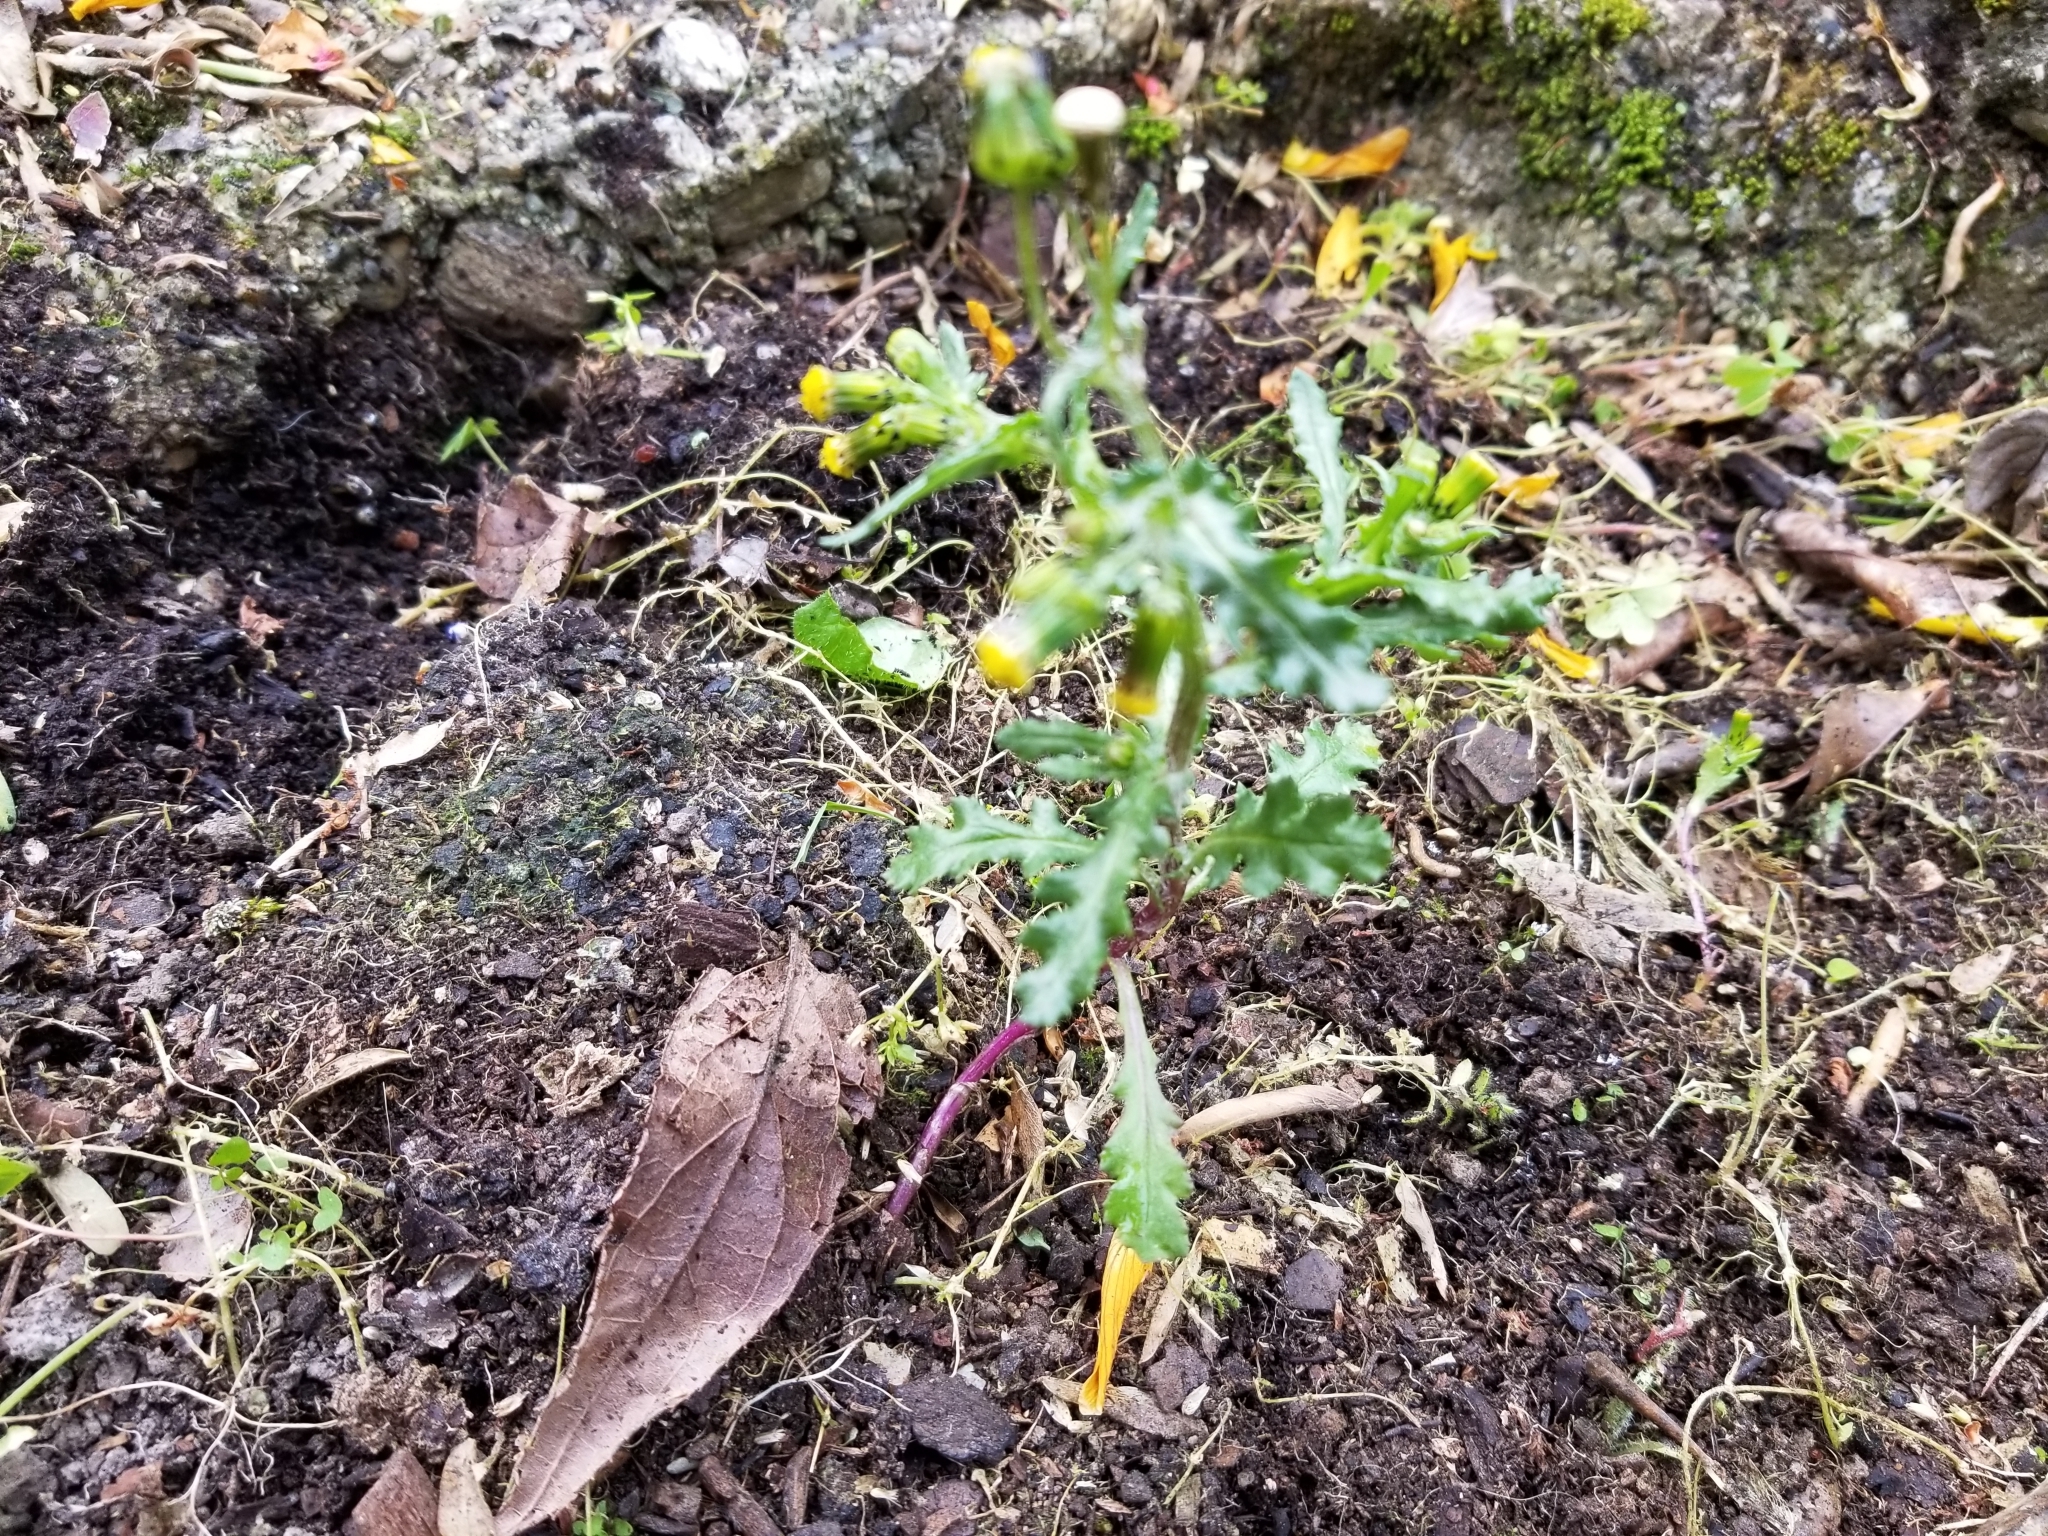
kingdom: Plantae
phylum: Tracheophyta
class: Magnoliopsida
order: Asterales
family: Asteraceae
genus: Senecio
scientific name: Senecio vulgaris
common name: Old-man-in-the-spring
